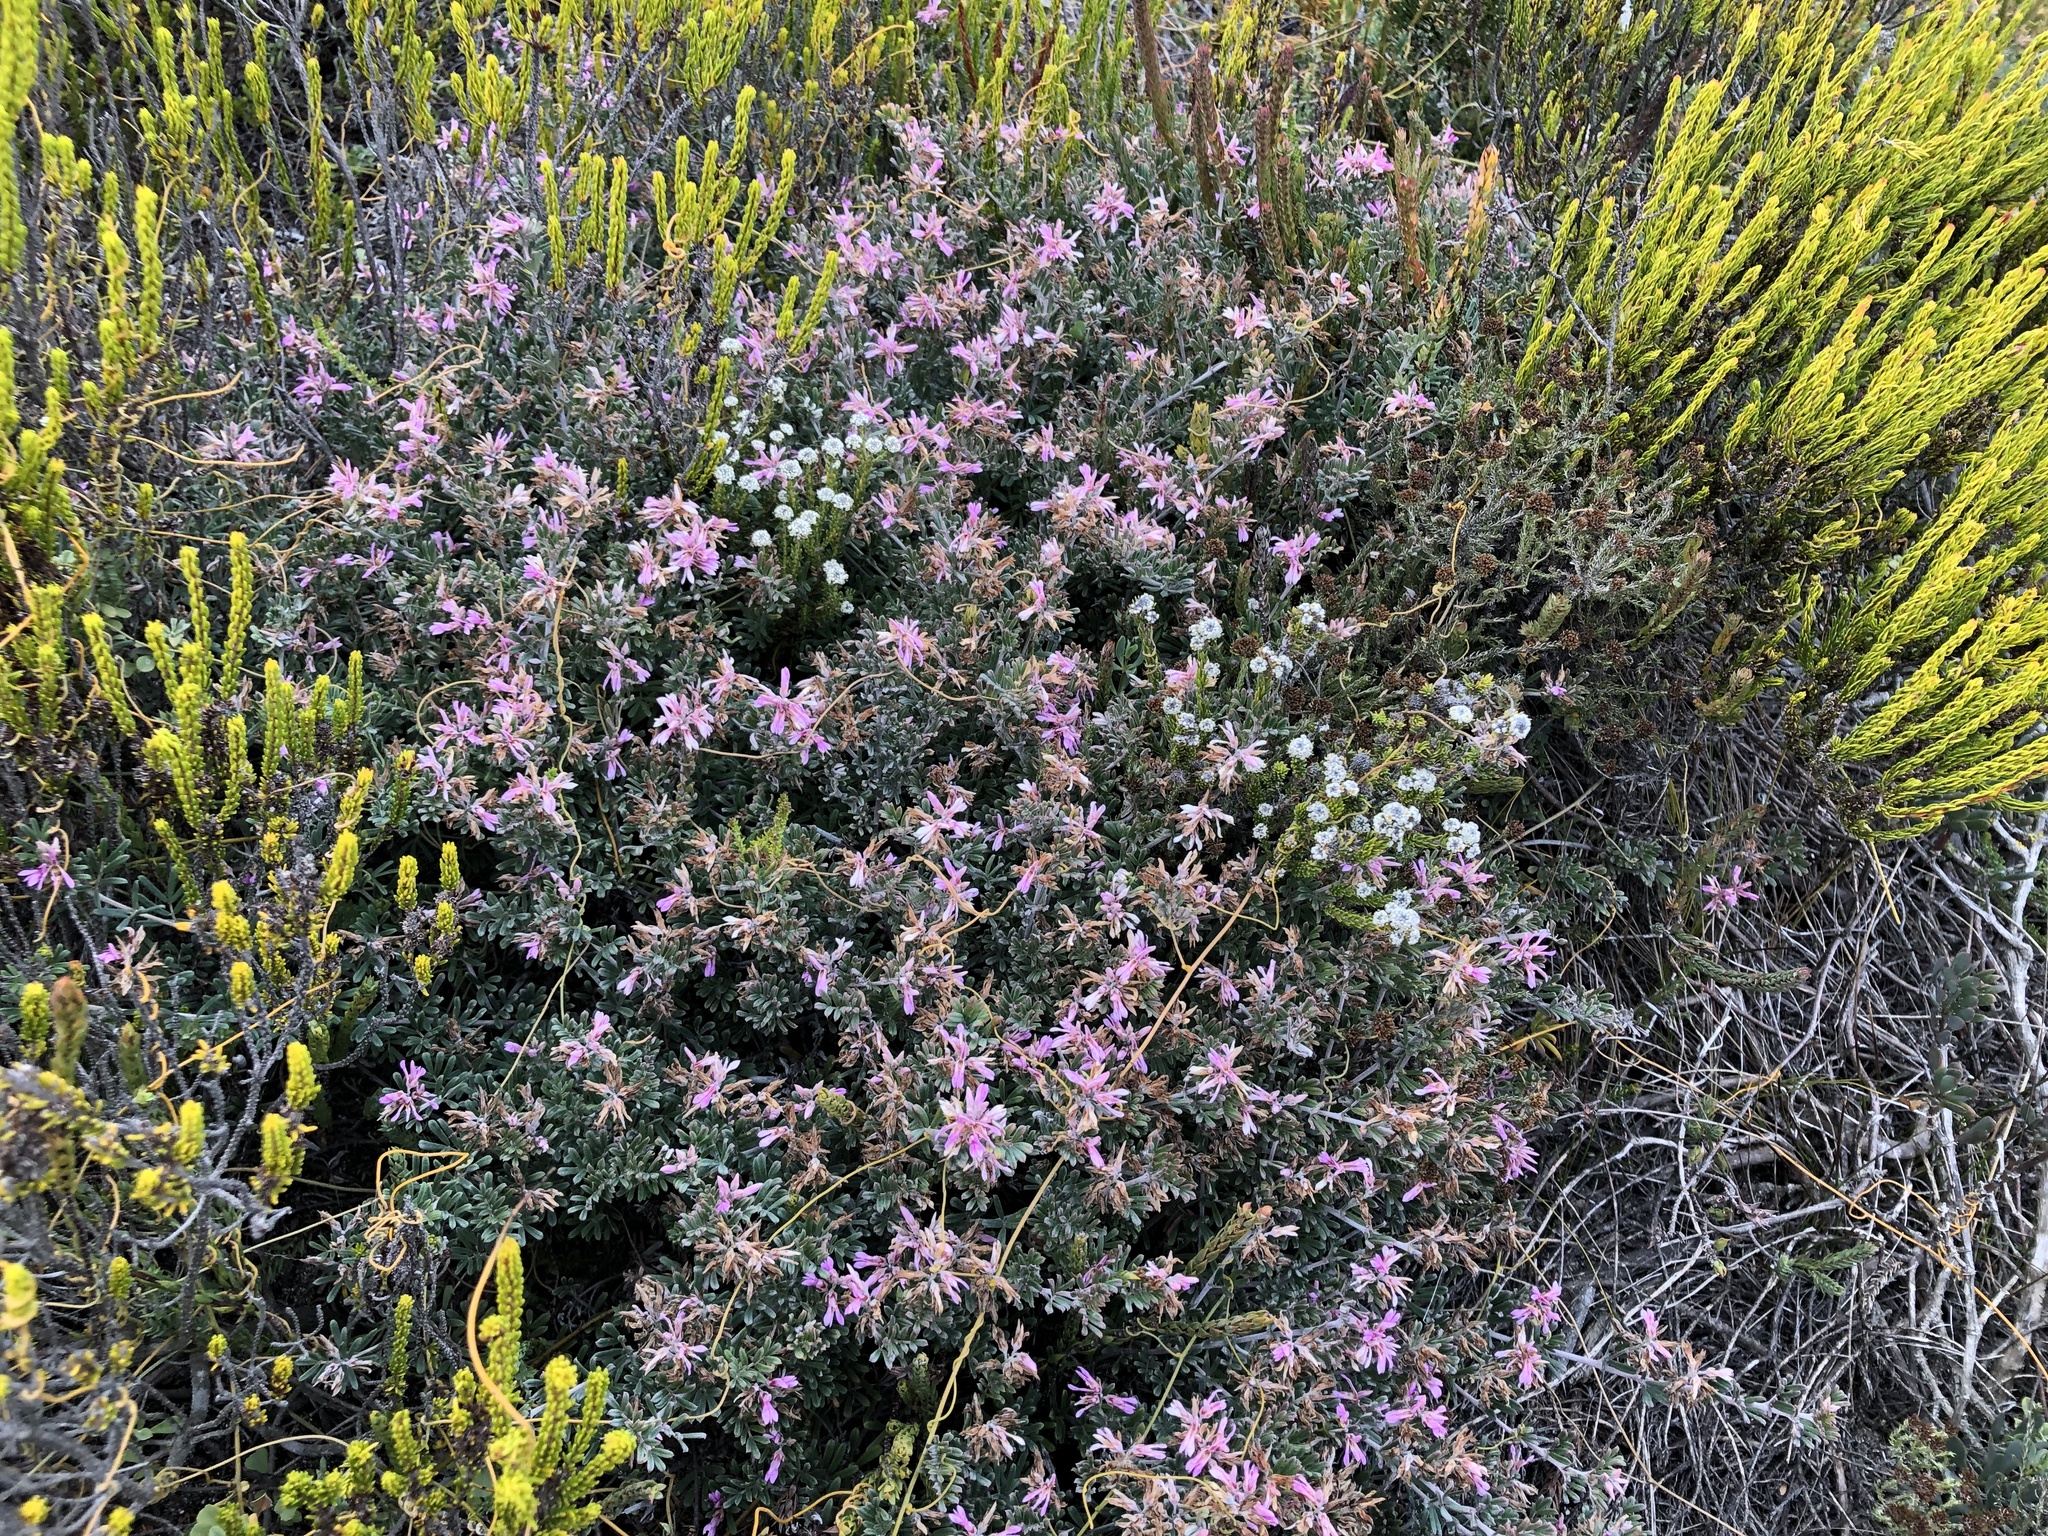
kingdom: Plantae
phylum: Tracheophyta
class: Magnoliopsida
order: Fabales
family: Fabaceae
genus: Microcharis
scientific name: Microcharis praetermissa
